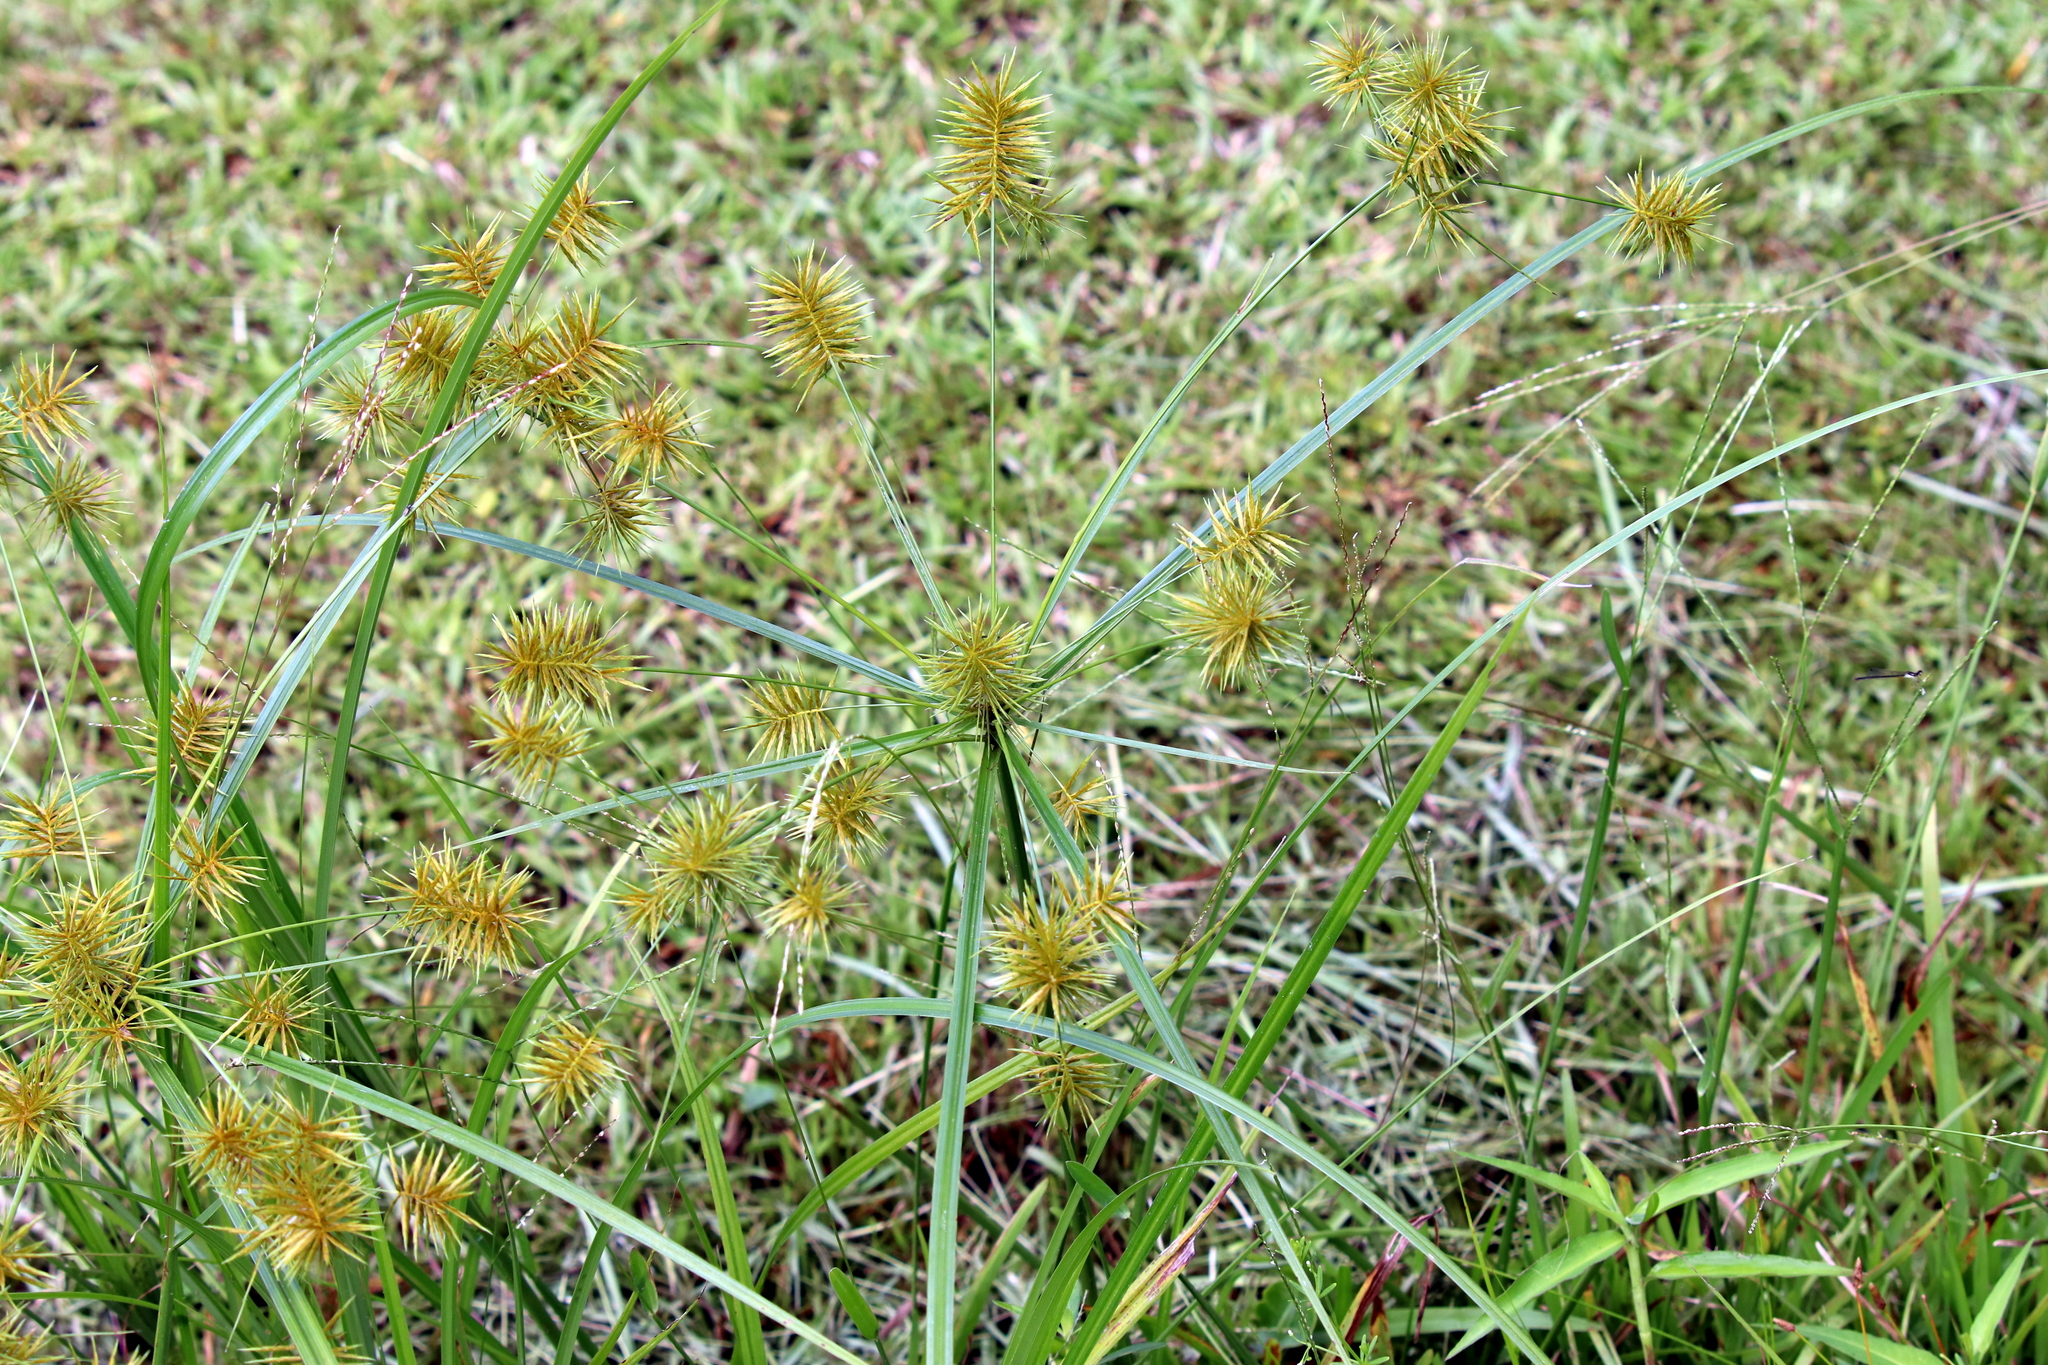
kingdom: Plantae
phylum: Tracheophyta
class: Liliopsida
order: Poales
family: Cyperaceae
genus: Cyperus
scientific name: Cyperus strigosus
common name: False nutsedge
